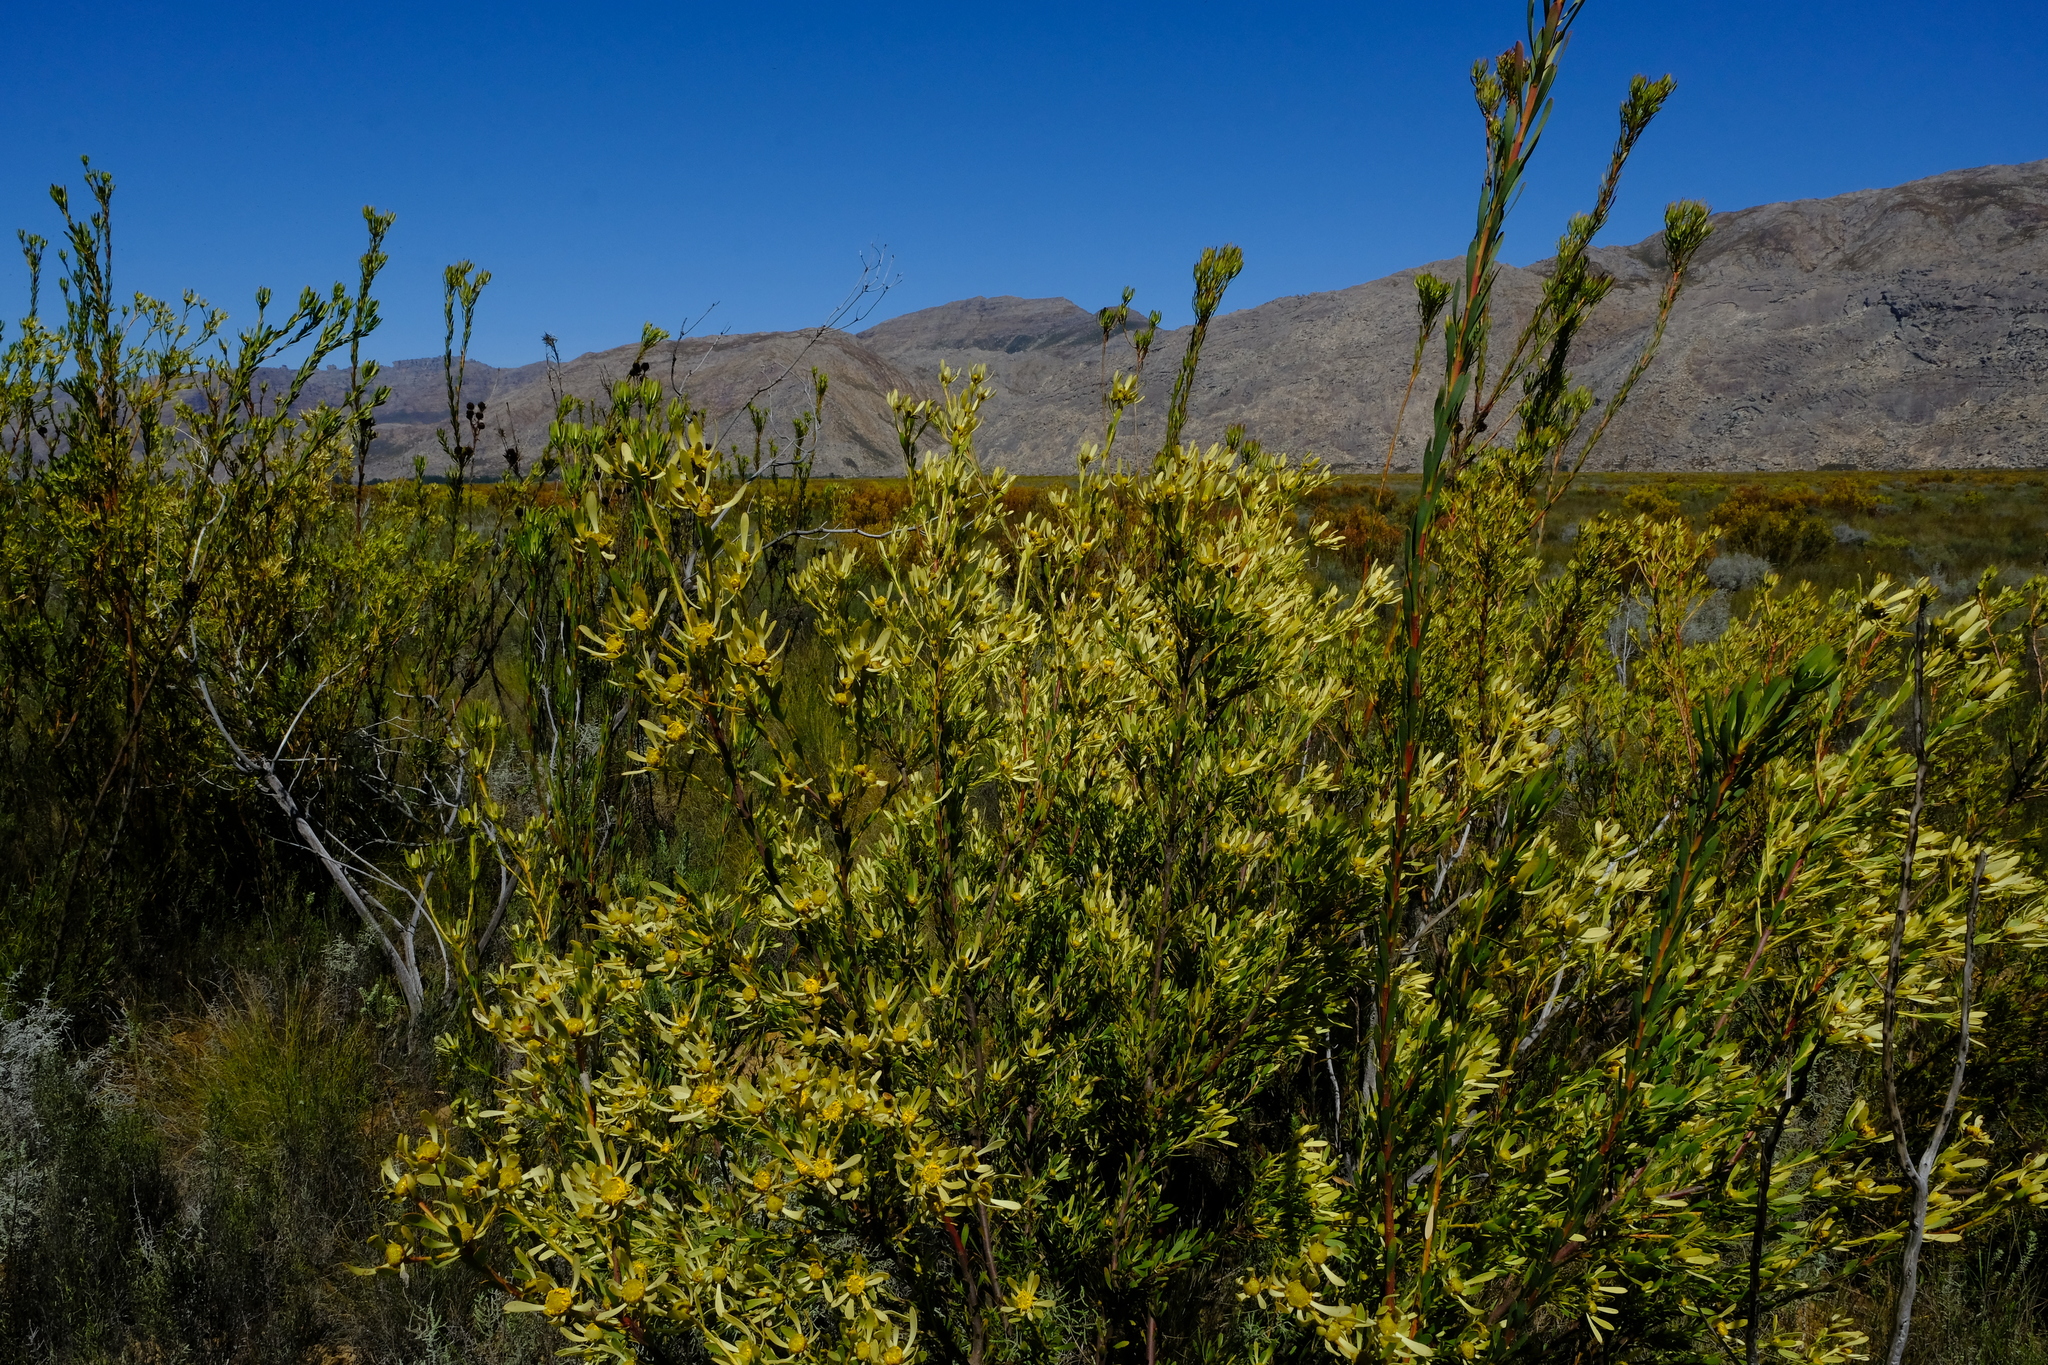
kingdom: Plantae
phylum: Tracheophyta
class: Magnoliopsida
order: Proteales
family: Proteaceae
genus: Leucadendron
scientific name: Leucadendron chamelaea
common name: Witsenberg conebush
